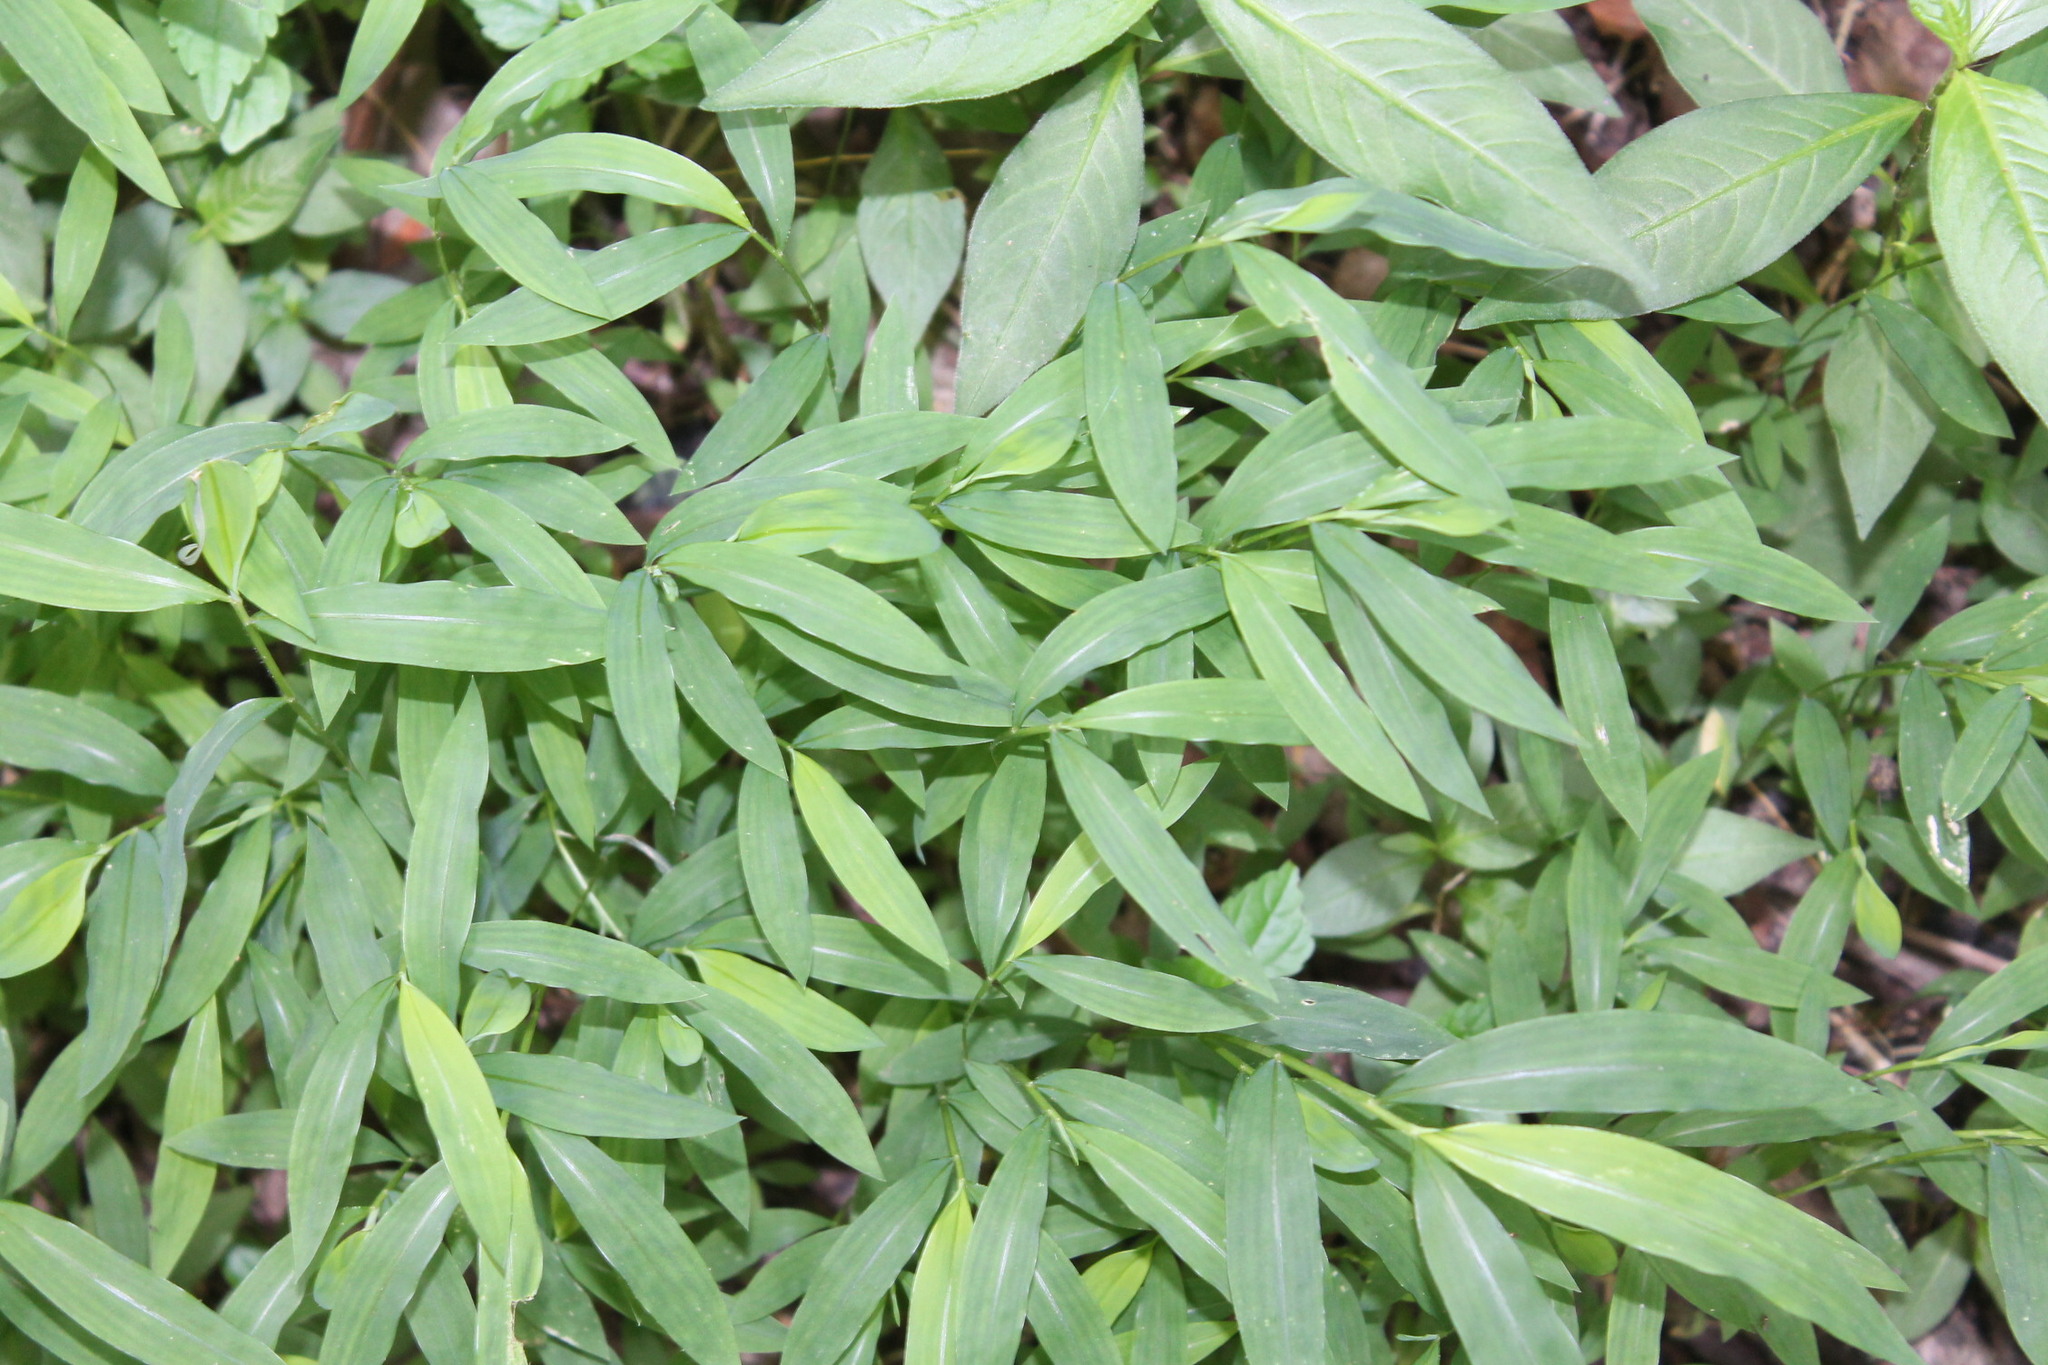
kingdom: Plantae
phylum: Tracheophyta
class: Liliopsida
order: Poales
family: Poaceae
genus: Microstegium
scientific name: Microstegium vimineum
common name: Japanese stiltgrass
